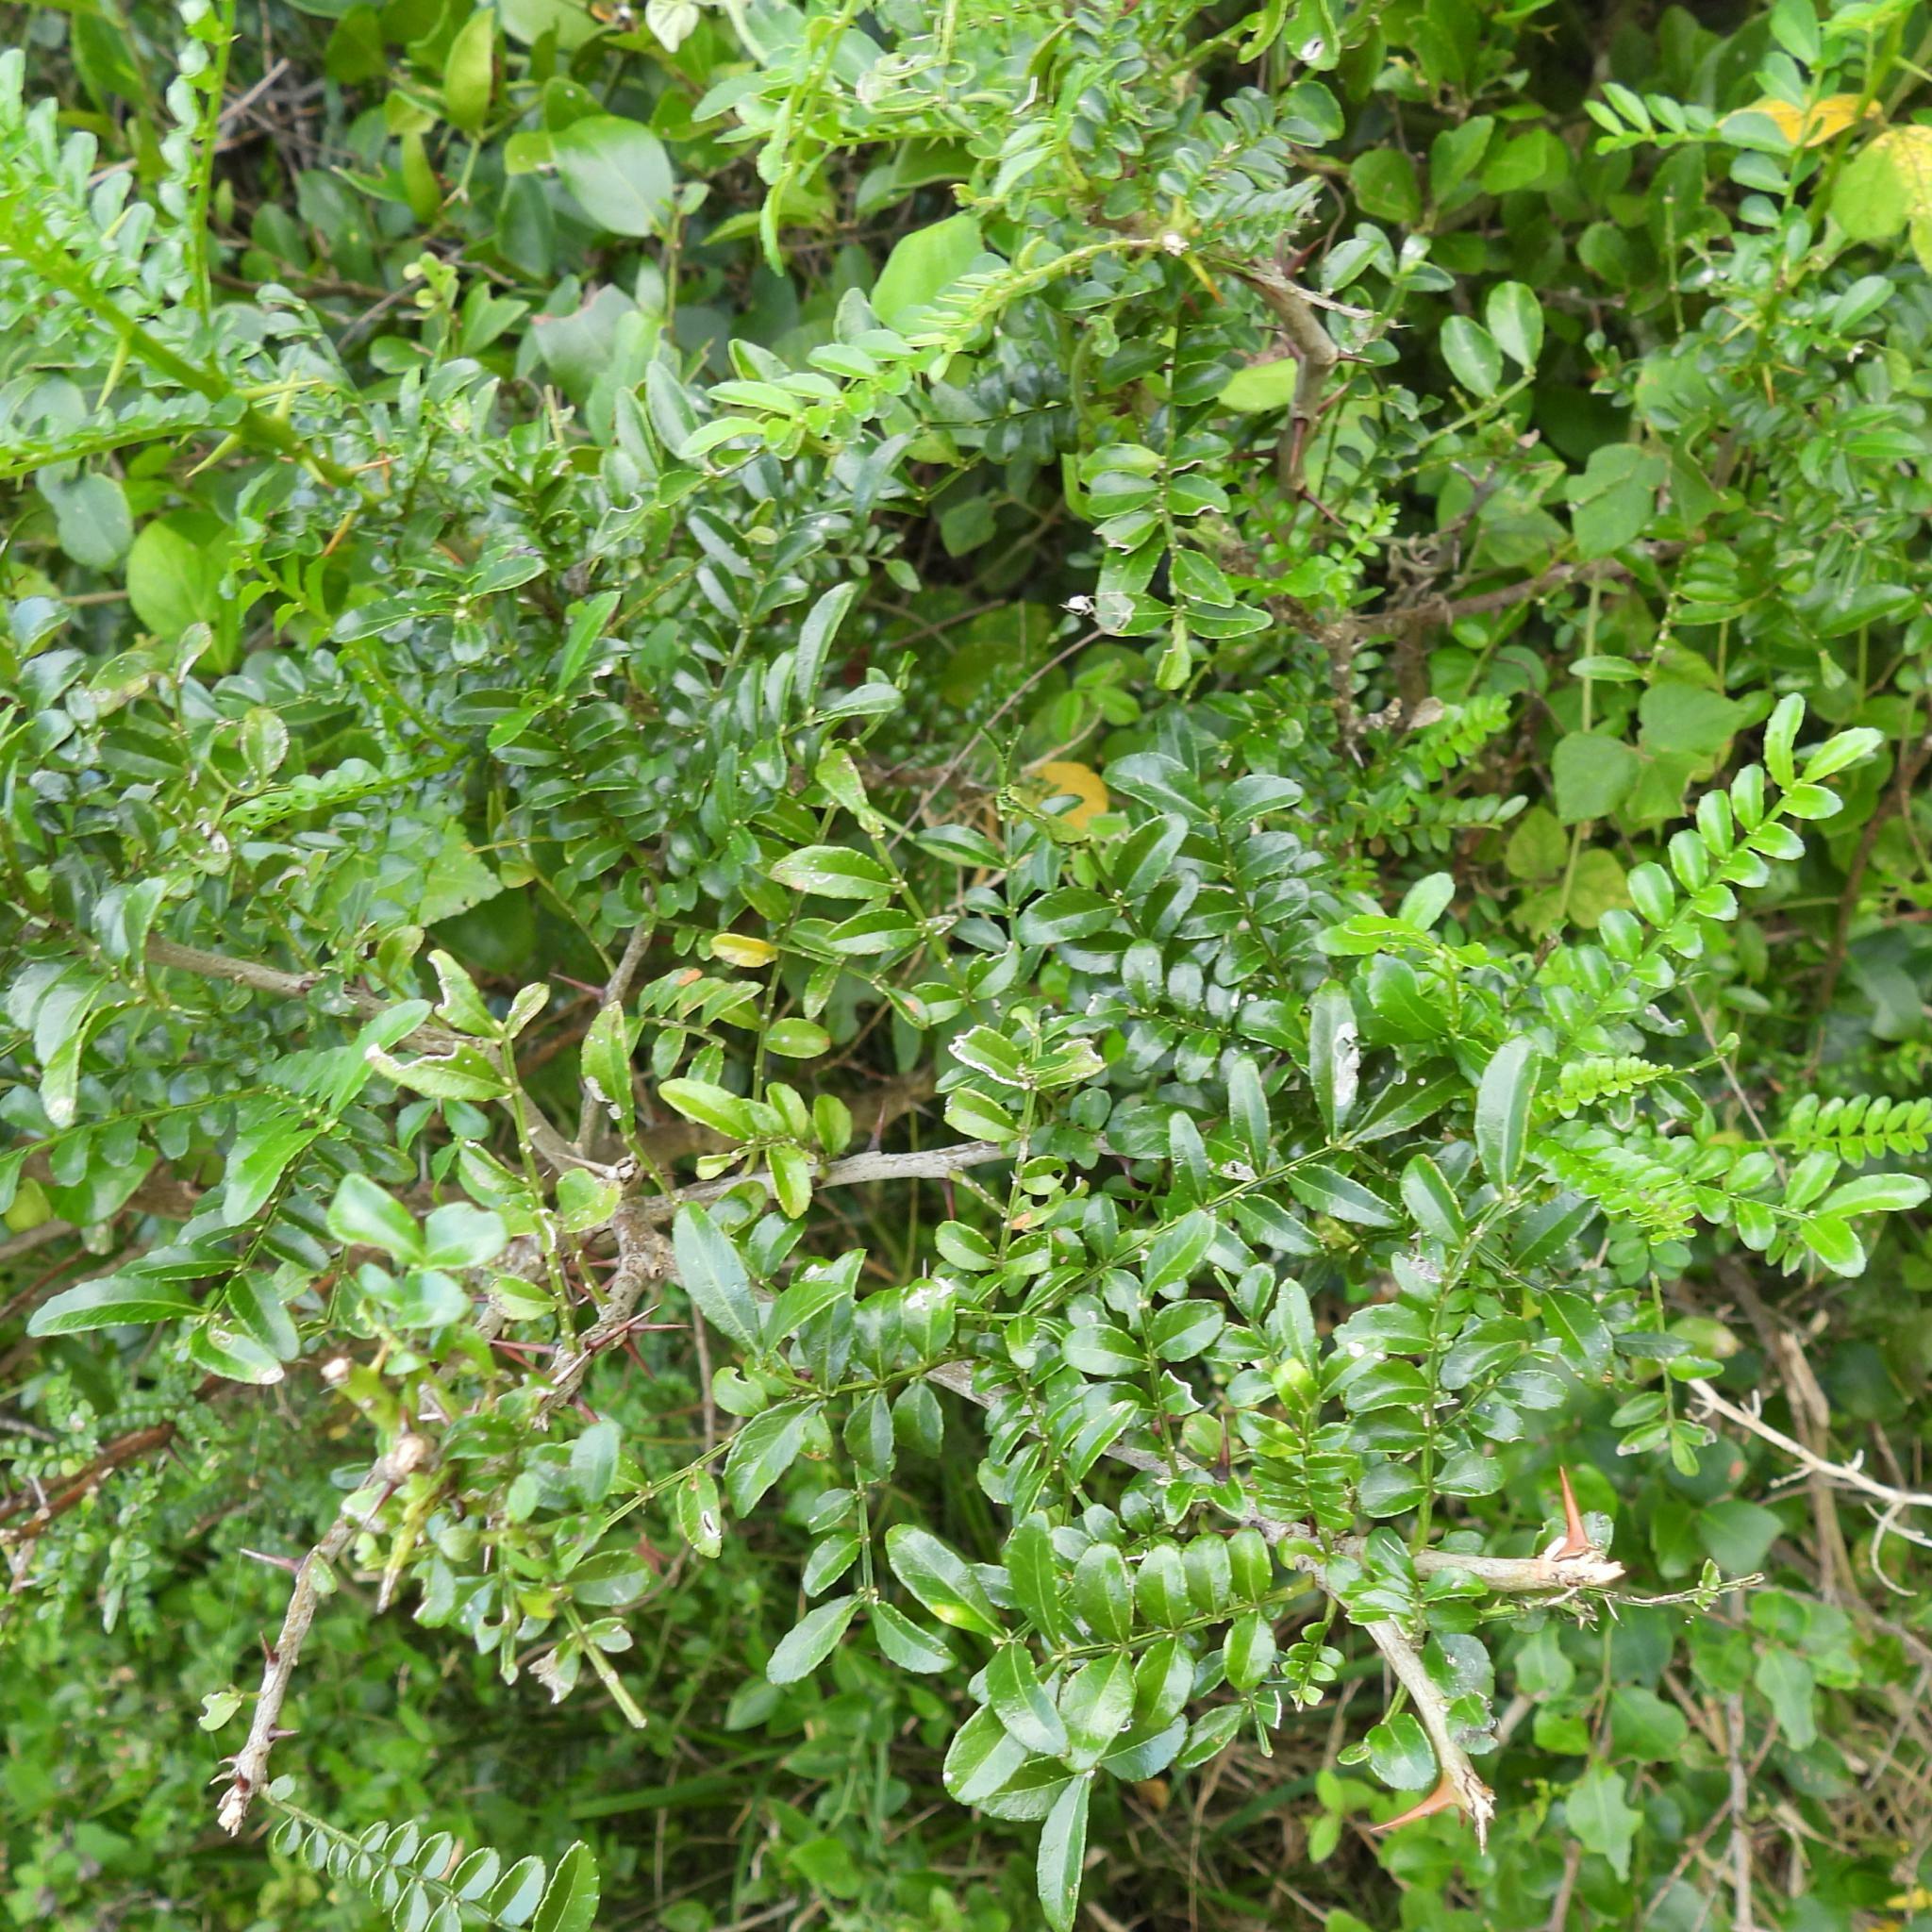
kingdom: Plantae
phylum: Tracheophyta
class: Magnoliopsida
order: Sapindales
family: Rutaceae
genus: Zanthoxylum
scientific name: Zanthoxylum capense
